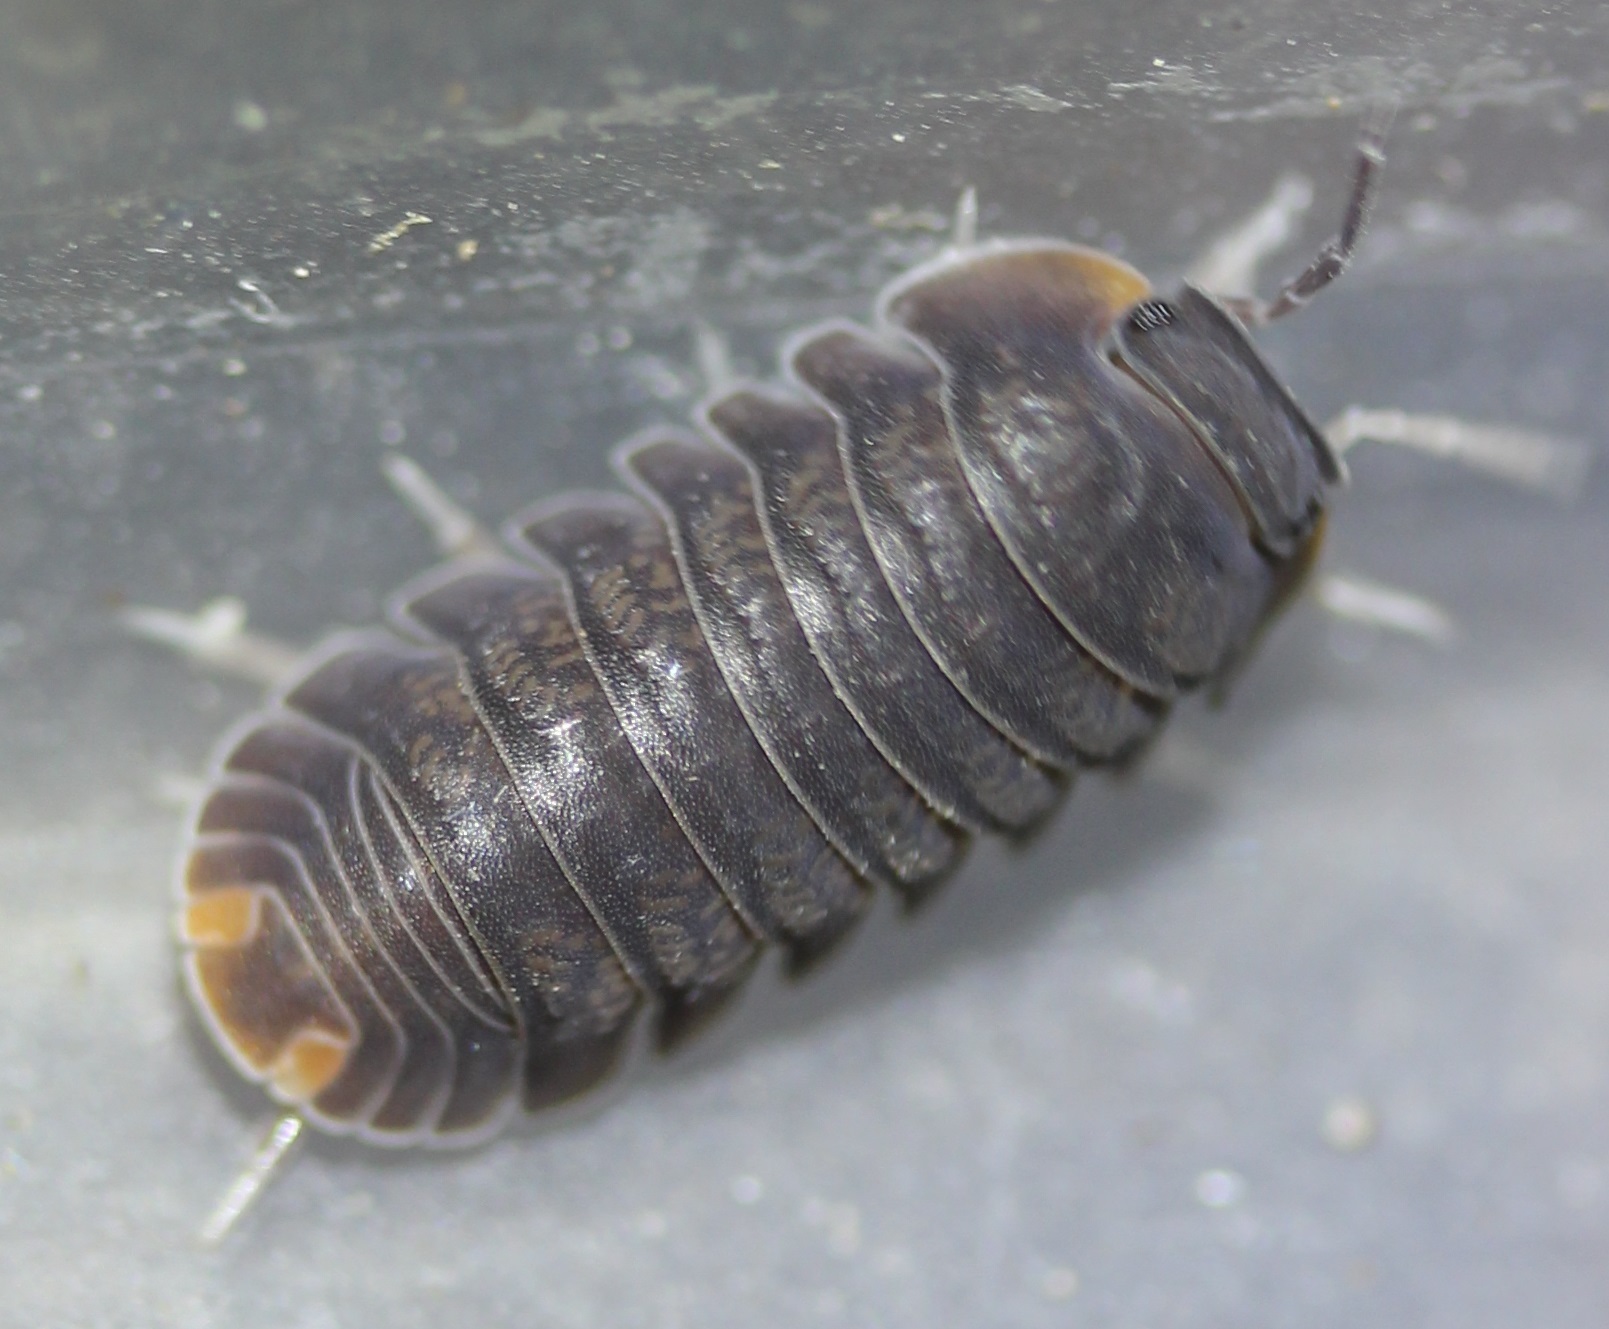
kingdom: Animalia
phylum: Arthropoda
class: Malacostraca
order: Isopoda
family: Armadillidae
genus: Cubaris
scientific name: Cubaris murina
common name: Pillbug
